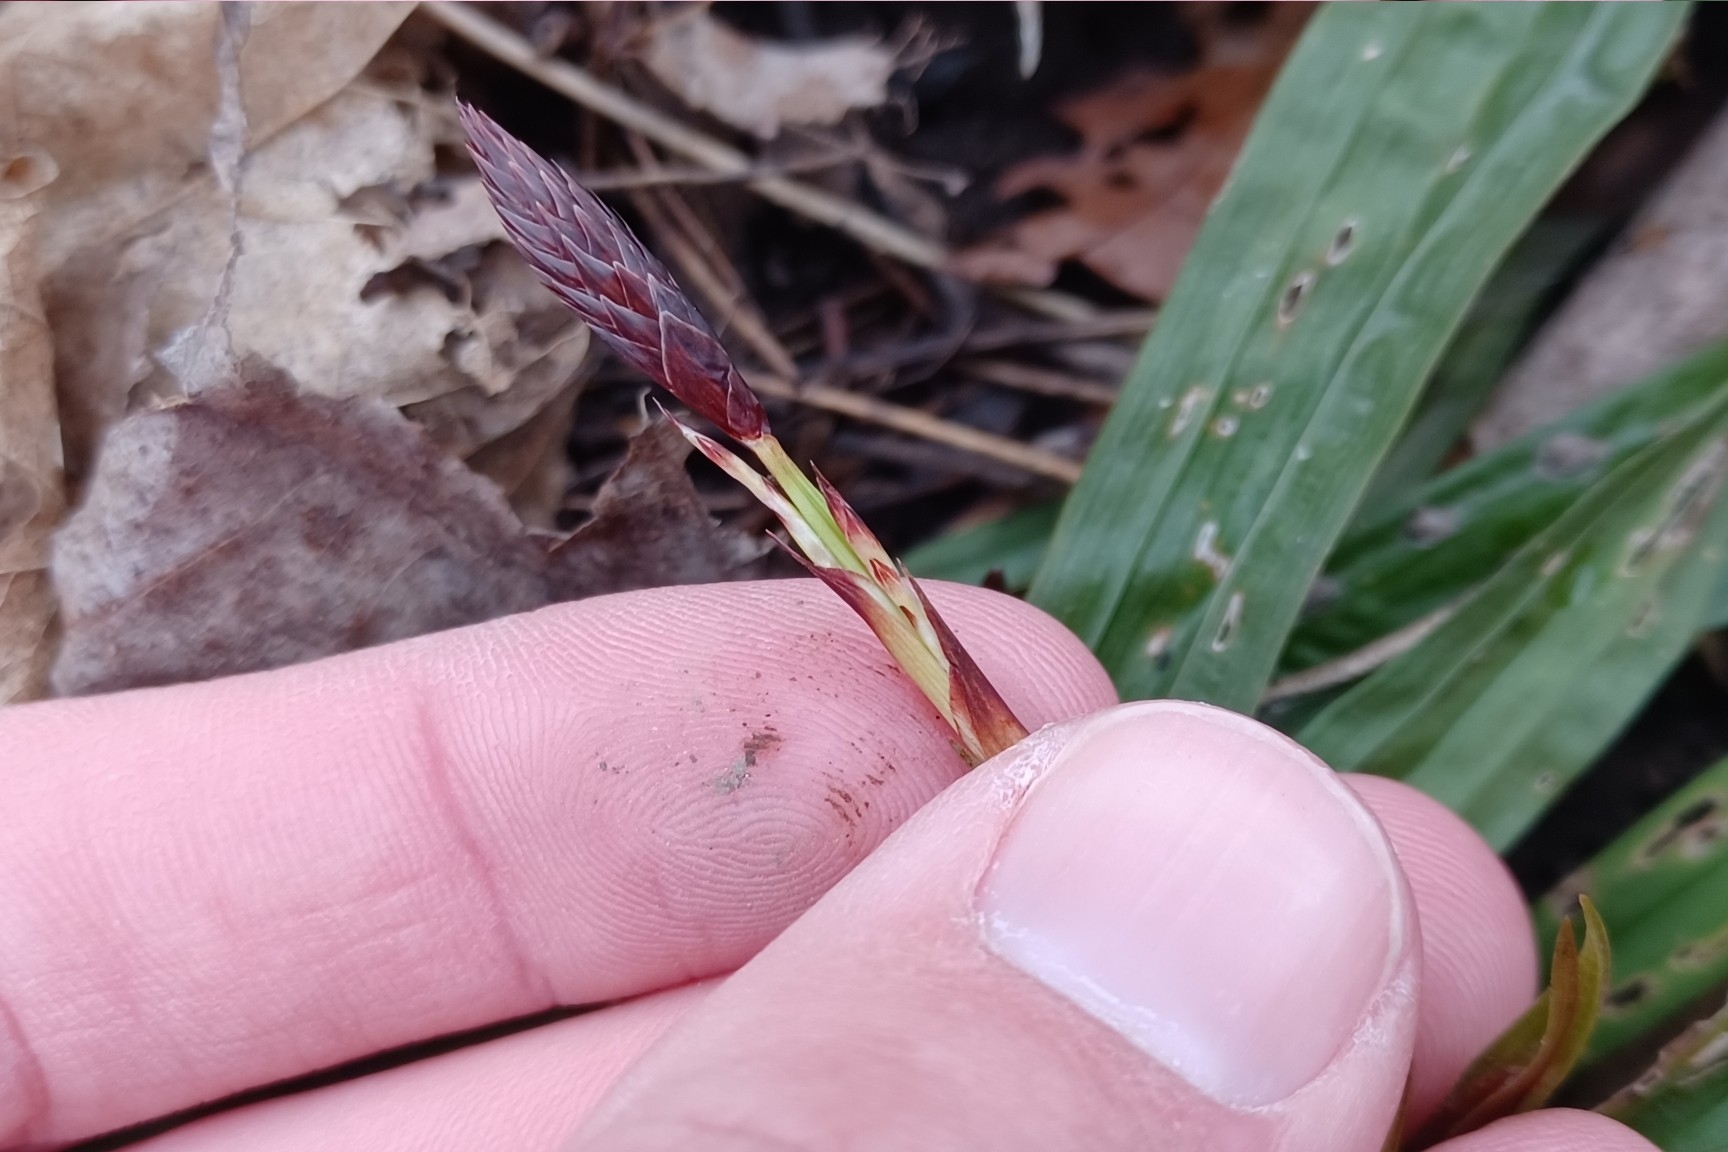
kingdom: Plantae
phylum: Tracheophyta
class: Liliopsida
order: Poales
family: Cyperaceae
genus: Carex
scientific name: Carex plantaginea
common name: Plantain-leaved sedge
